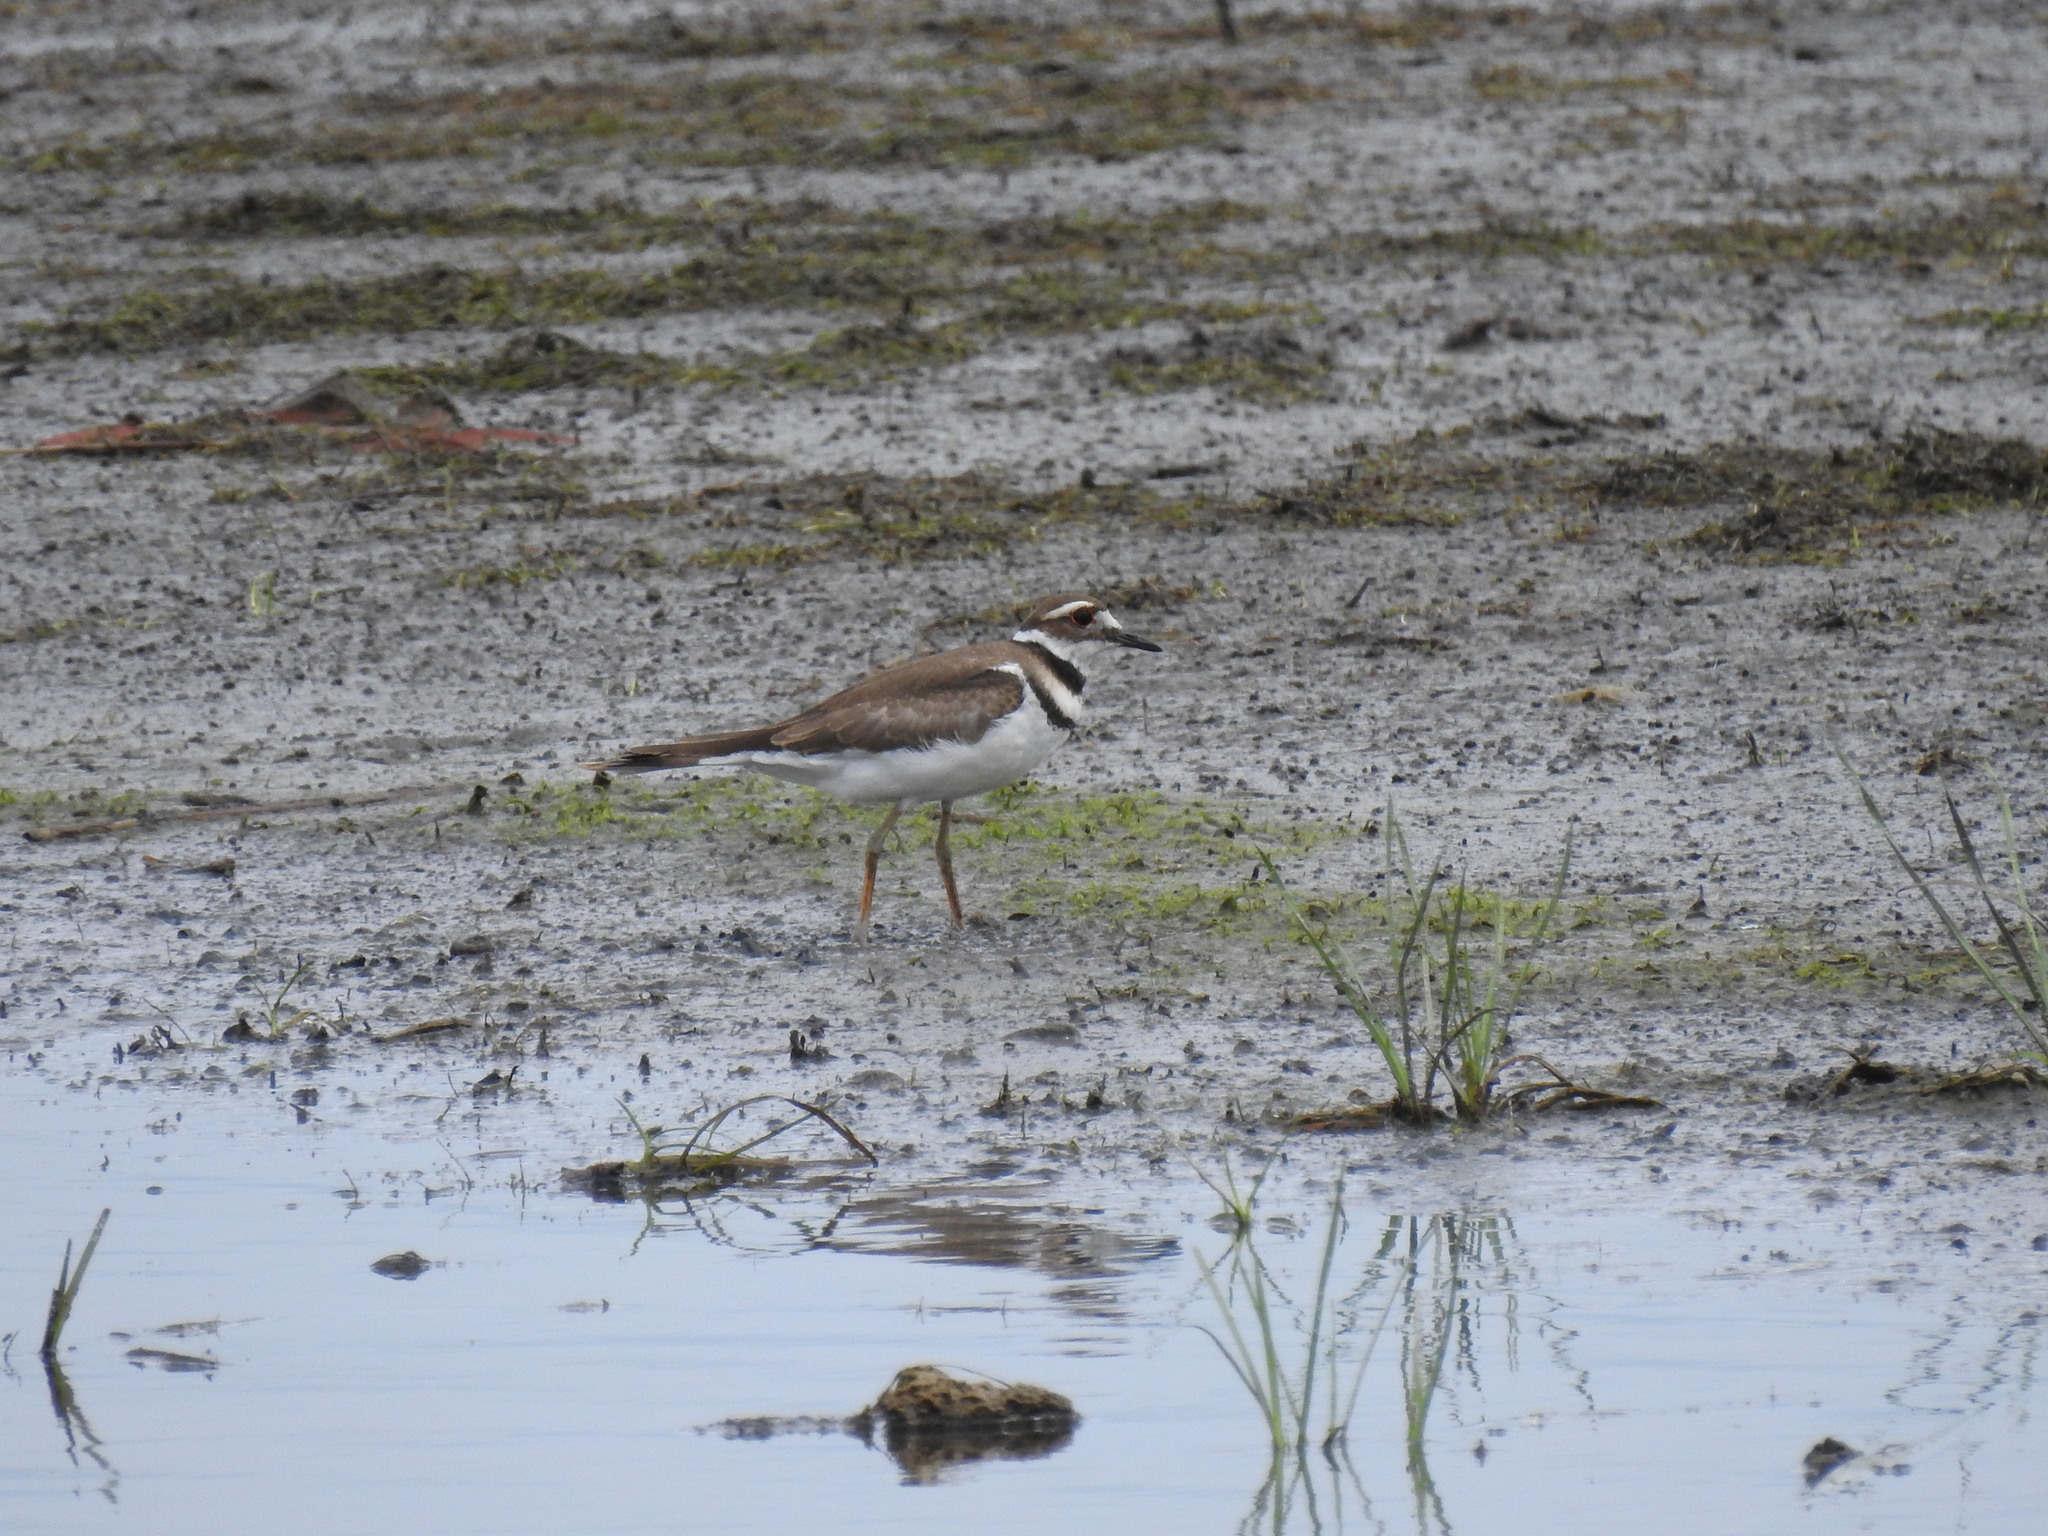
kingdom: Animalia
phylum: Chordata
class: Aves
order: Charadriiformes
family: Charadriidae
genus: Charadrius
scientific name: Charadrius vociferus
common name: Killdeer
